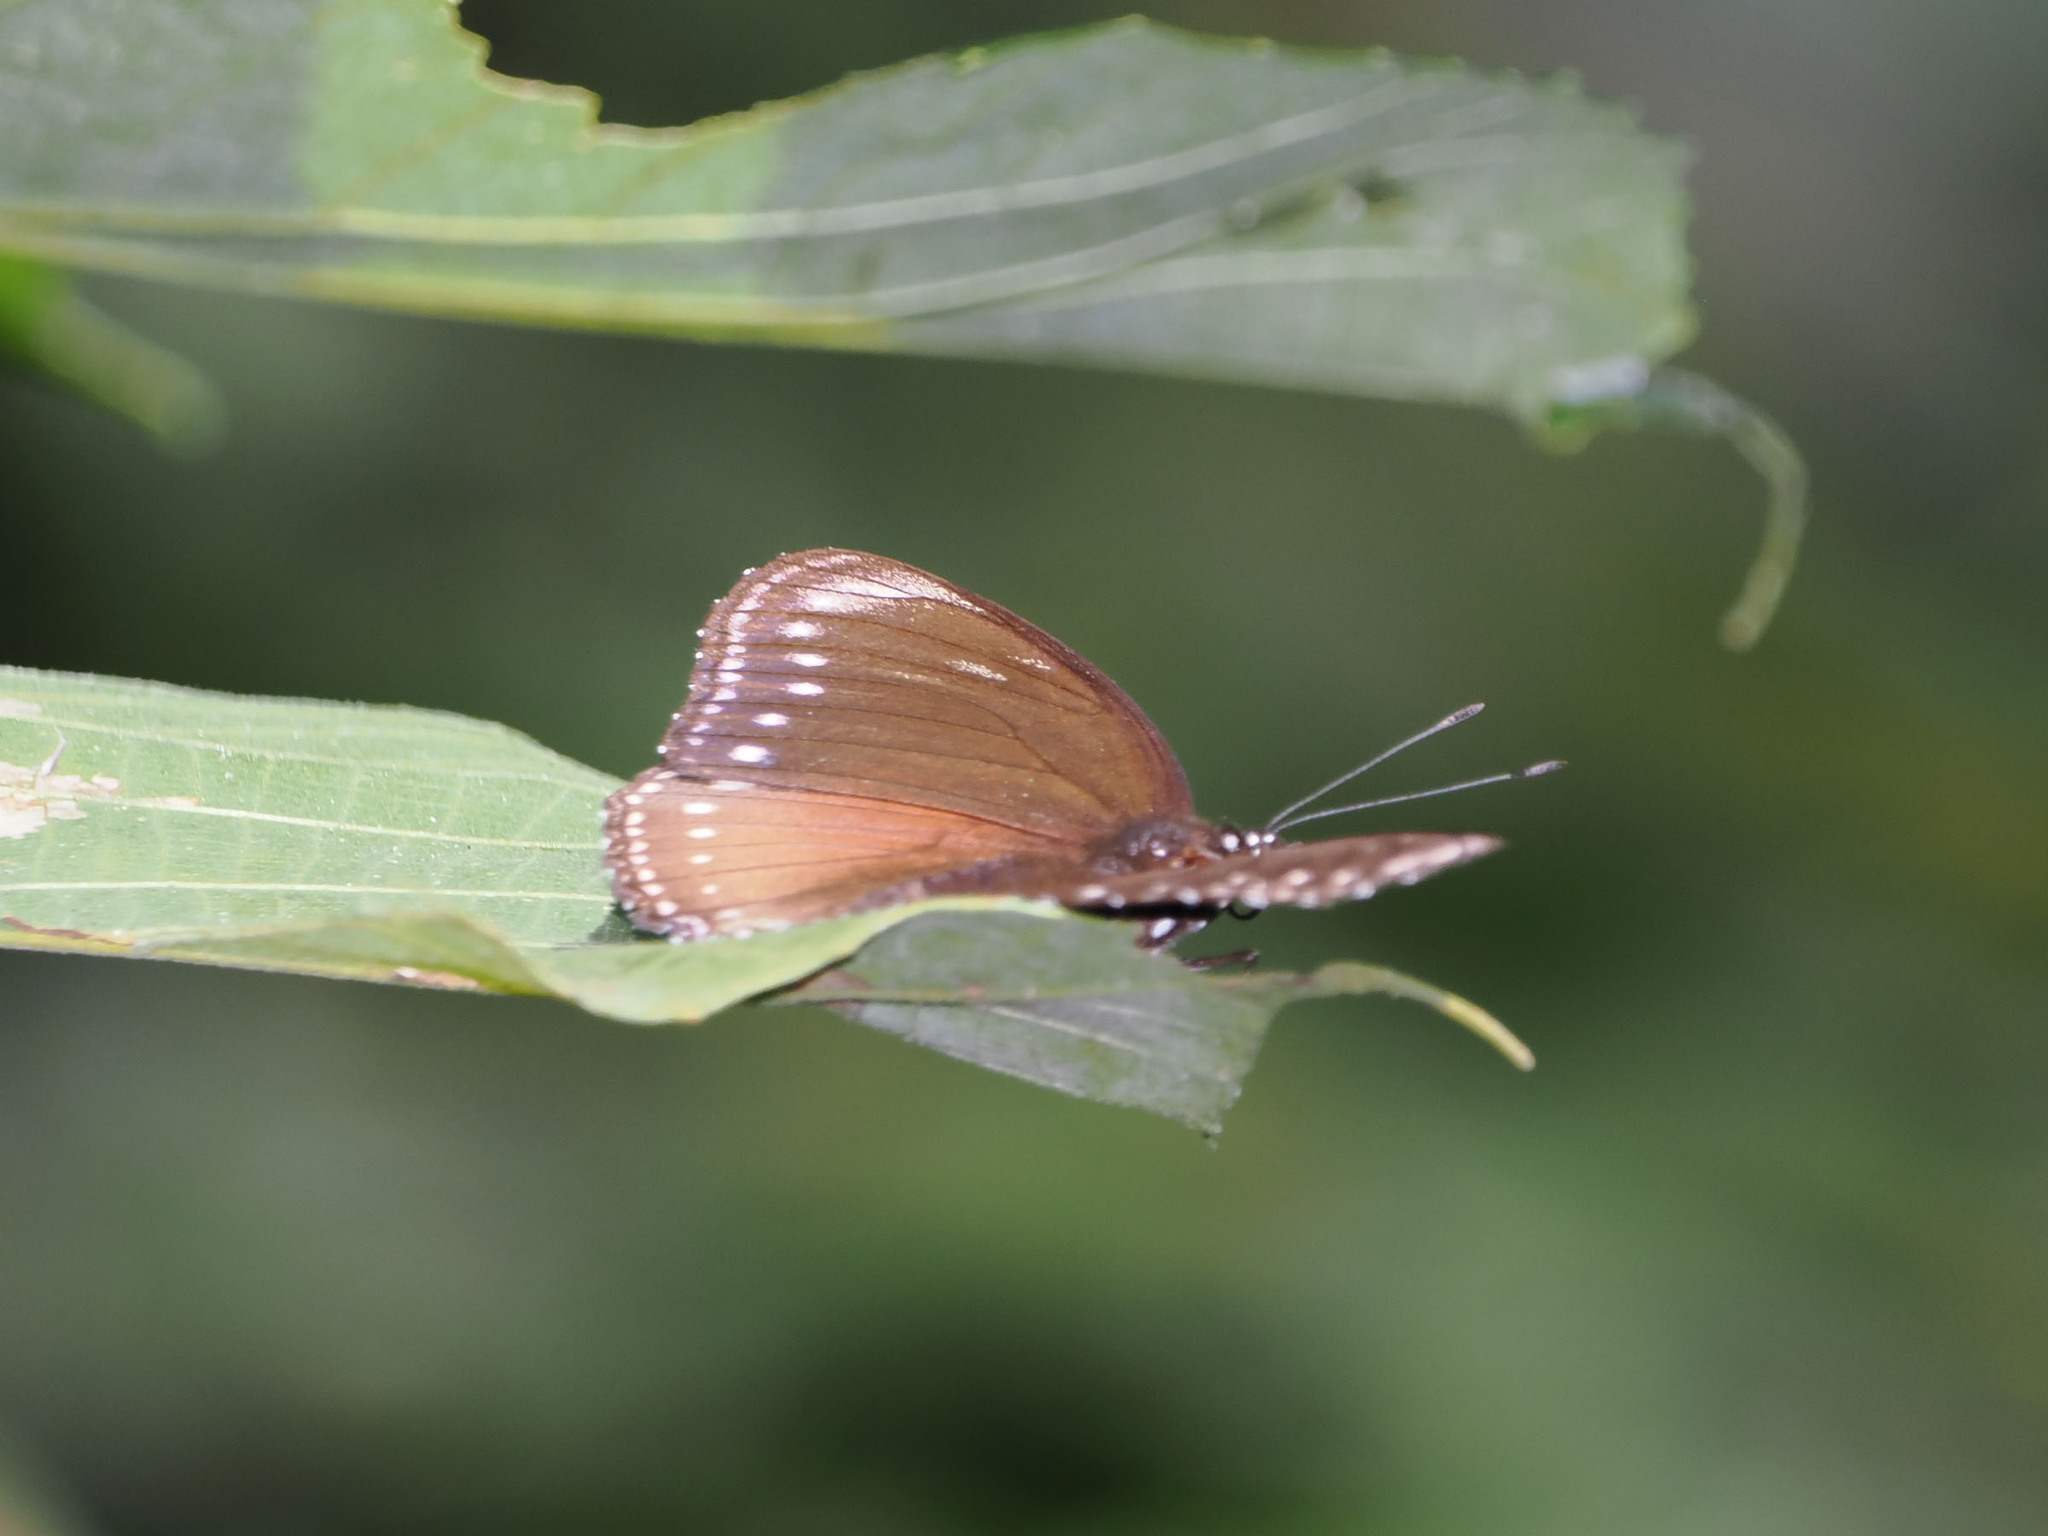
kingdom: Animalia
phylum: Arthropoda
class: Insecta
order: Lepidoptera
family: Nymphalidae
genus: Hypolimnas
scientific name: Hypolimnas anomala
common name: Malayan eggfly
